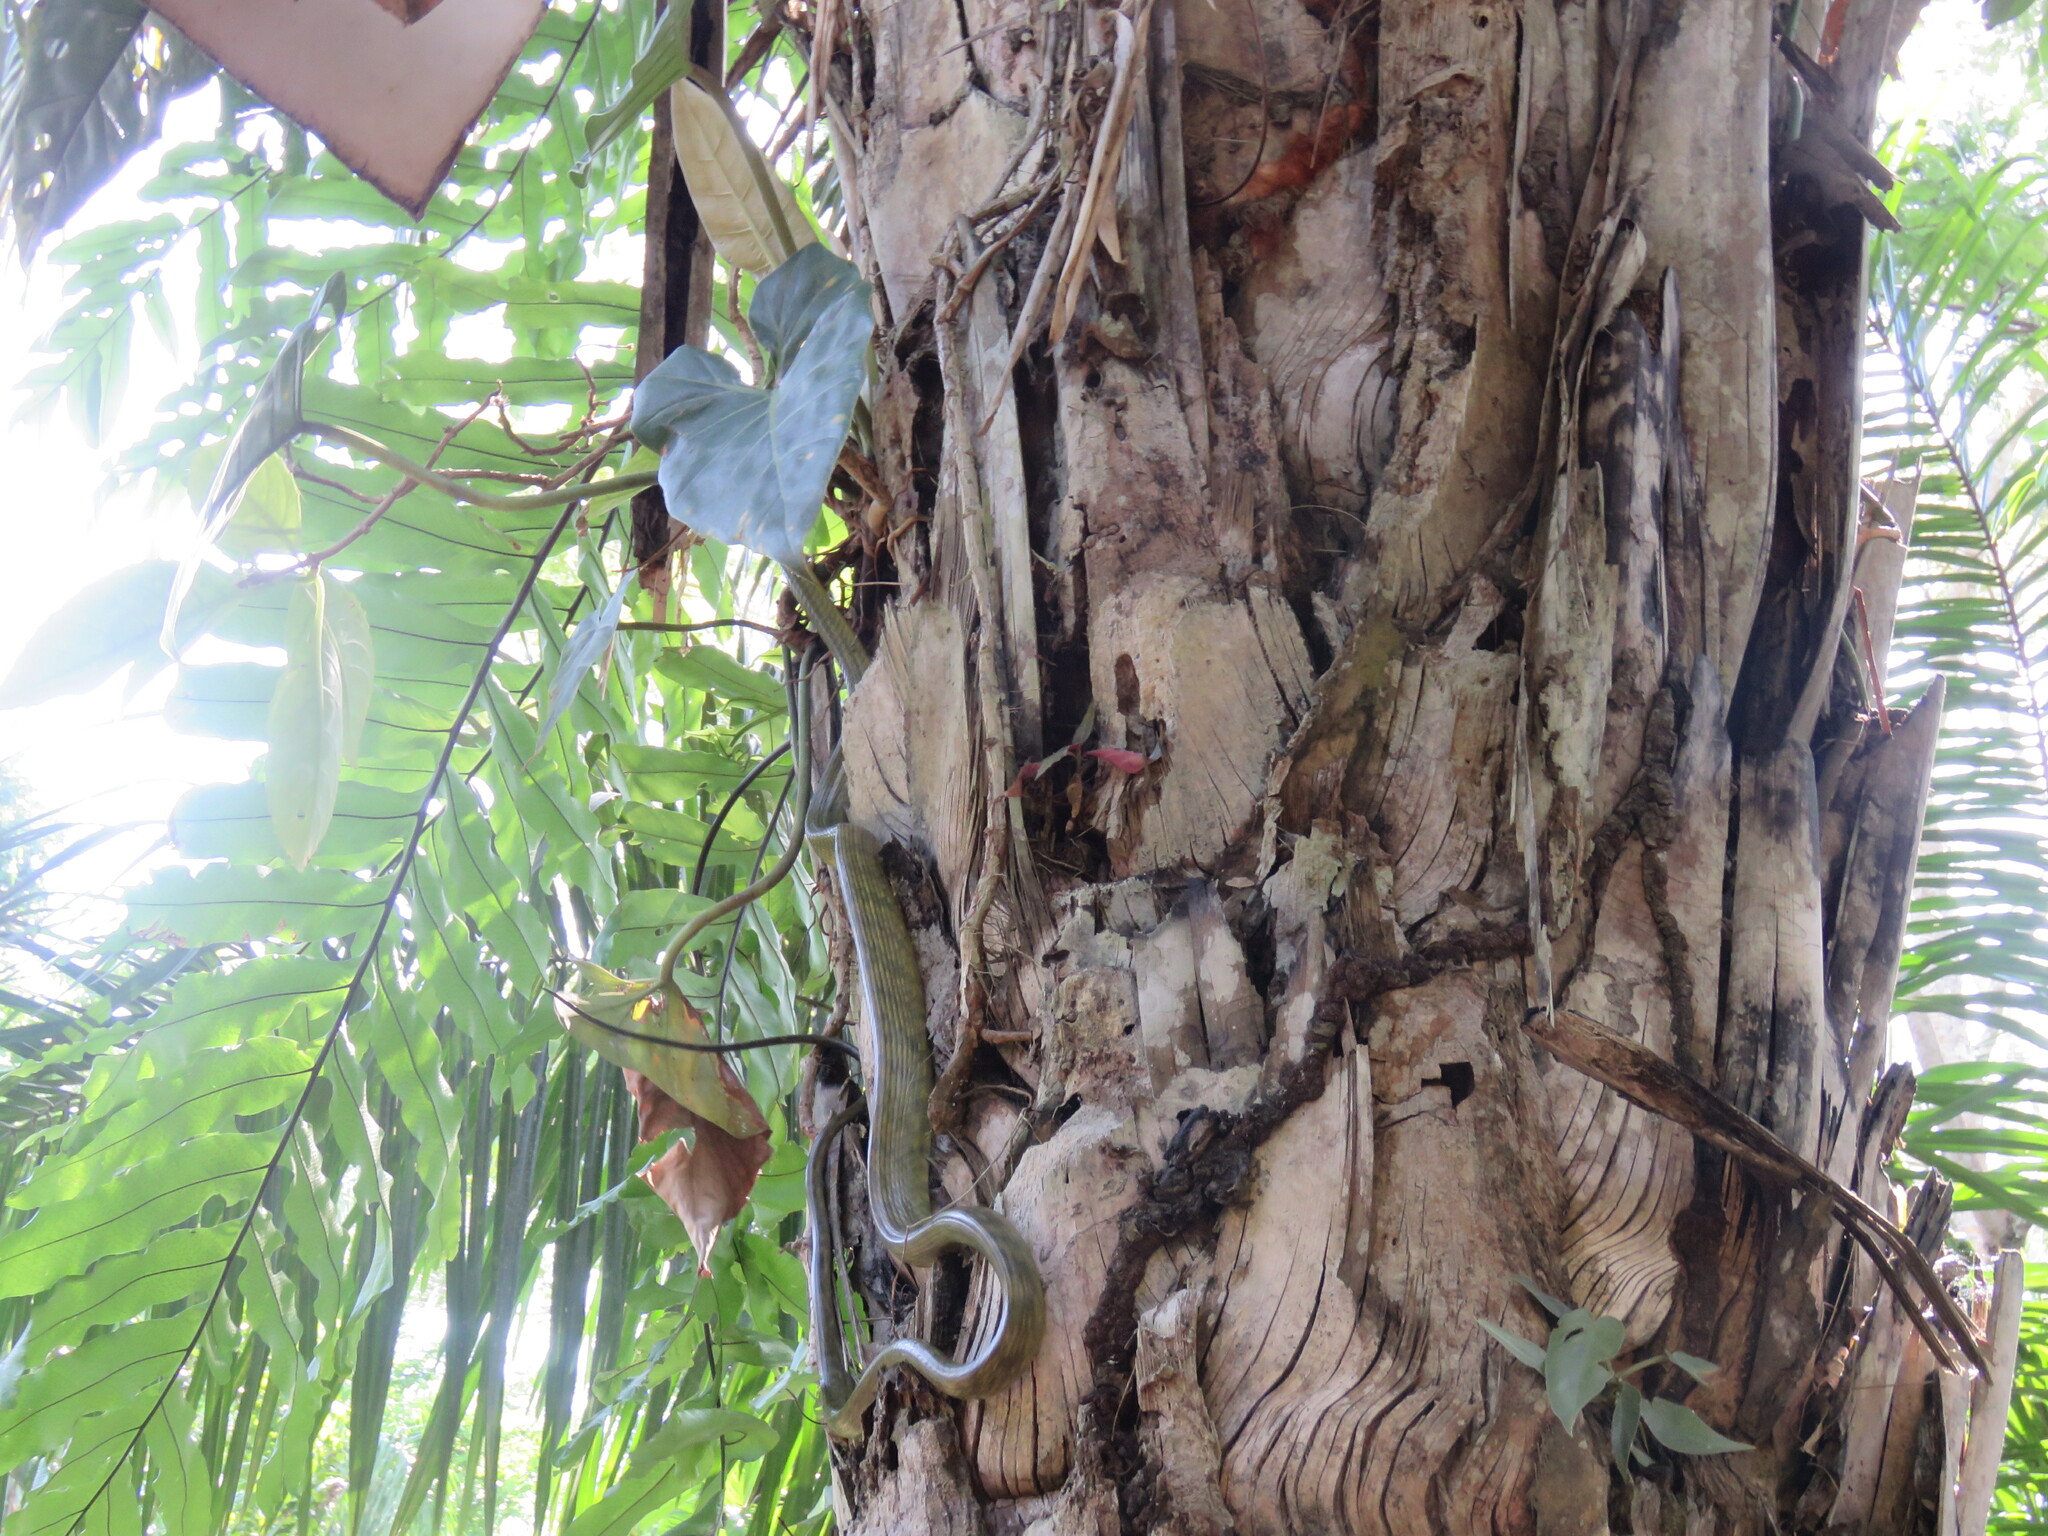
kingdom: Animalia
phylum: Chordata
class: Squamata
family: Colubridae
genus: Spilotes
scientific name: Spilotes sulphureus
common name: Amazon puffing snake
